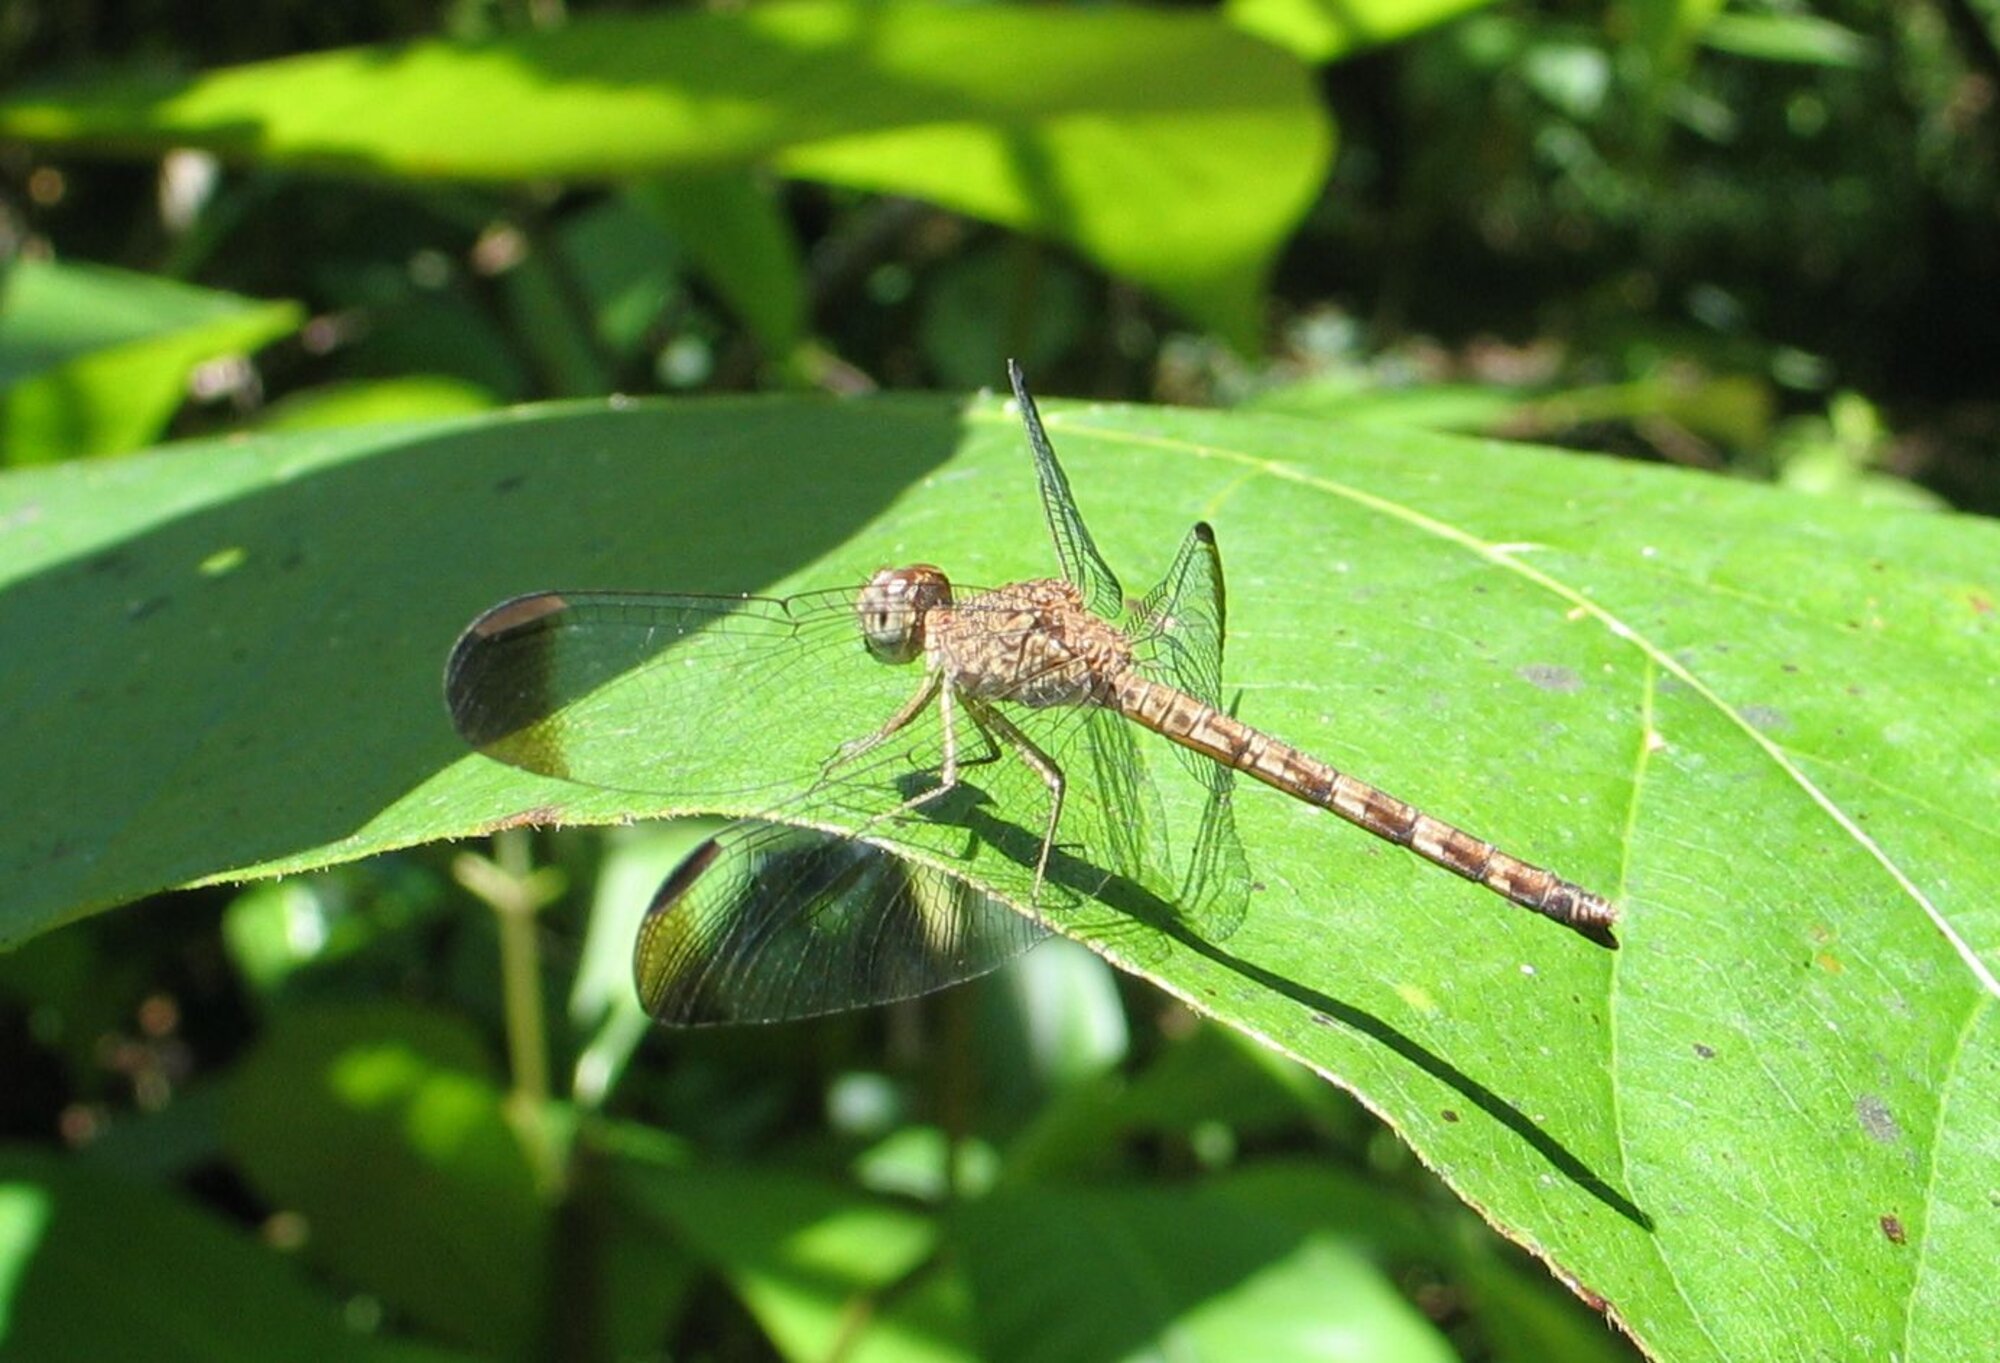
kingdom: Animalia
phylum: Arthropoda
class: Insecta
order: Odonata
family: Libellulidae
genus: Uracis
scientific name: Uracis imbuta
